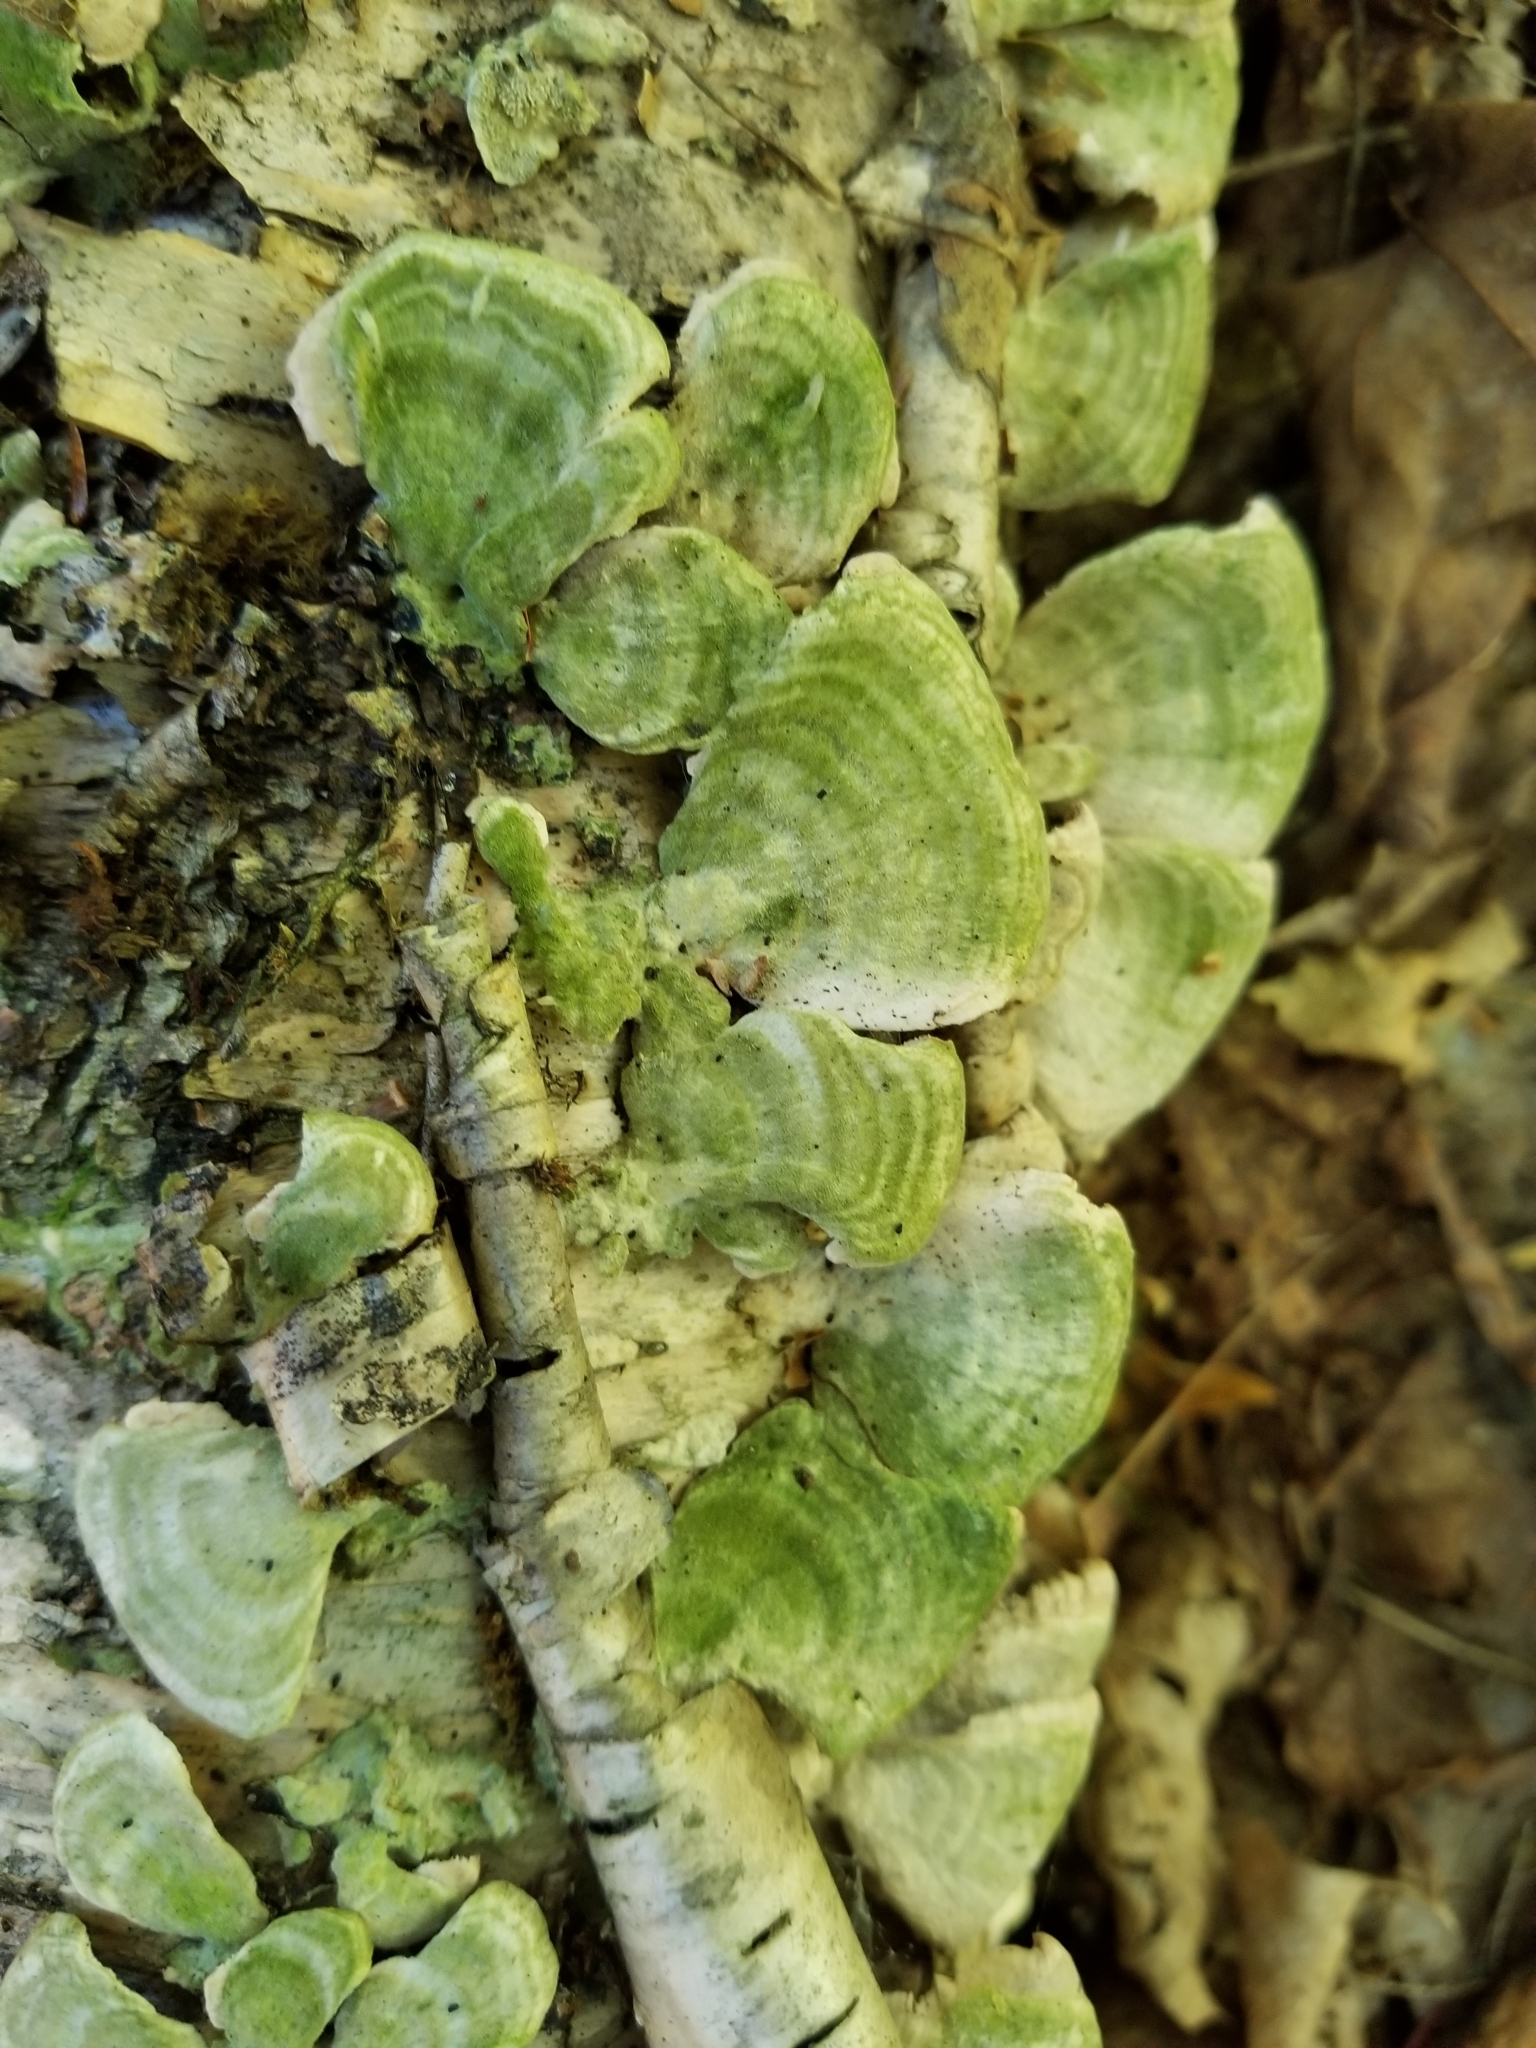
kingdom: Fungi
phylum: Basidiomycota
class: Agaricomycetes
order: Hymenochaetales
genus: Trichaptum
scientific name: Trichaptum biforme
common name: Violet-toothed polypore
